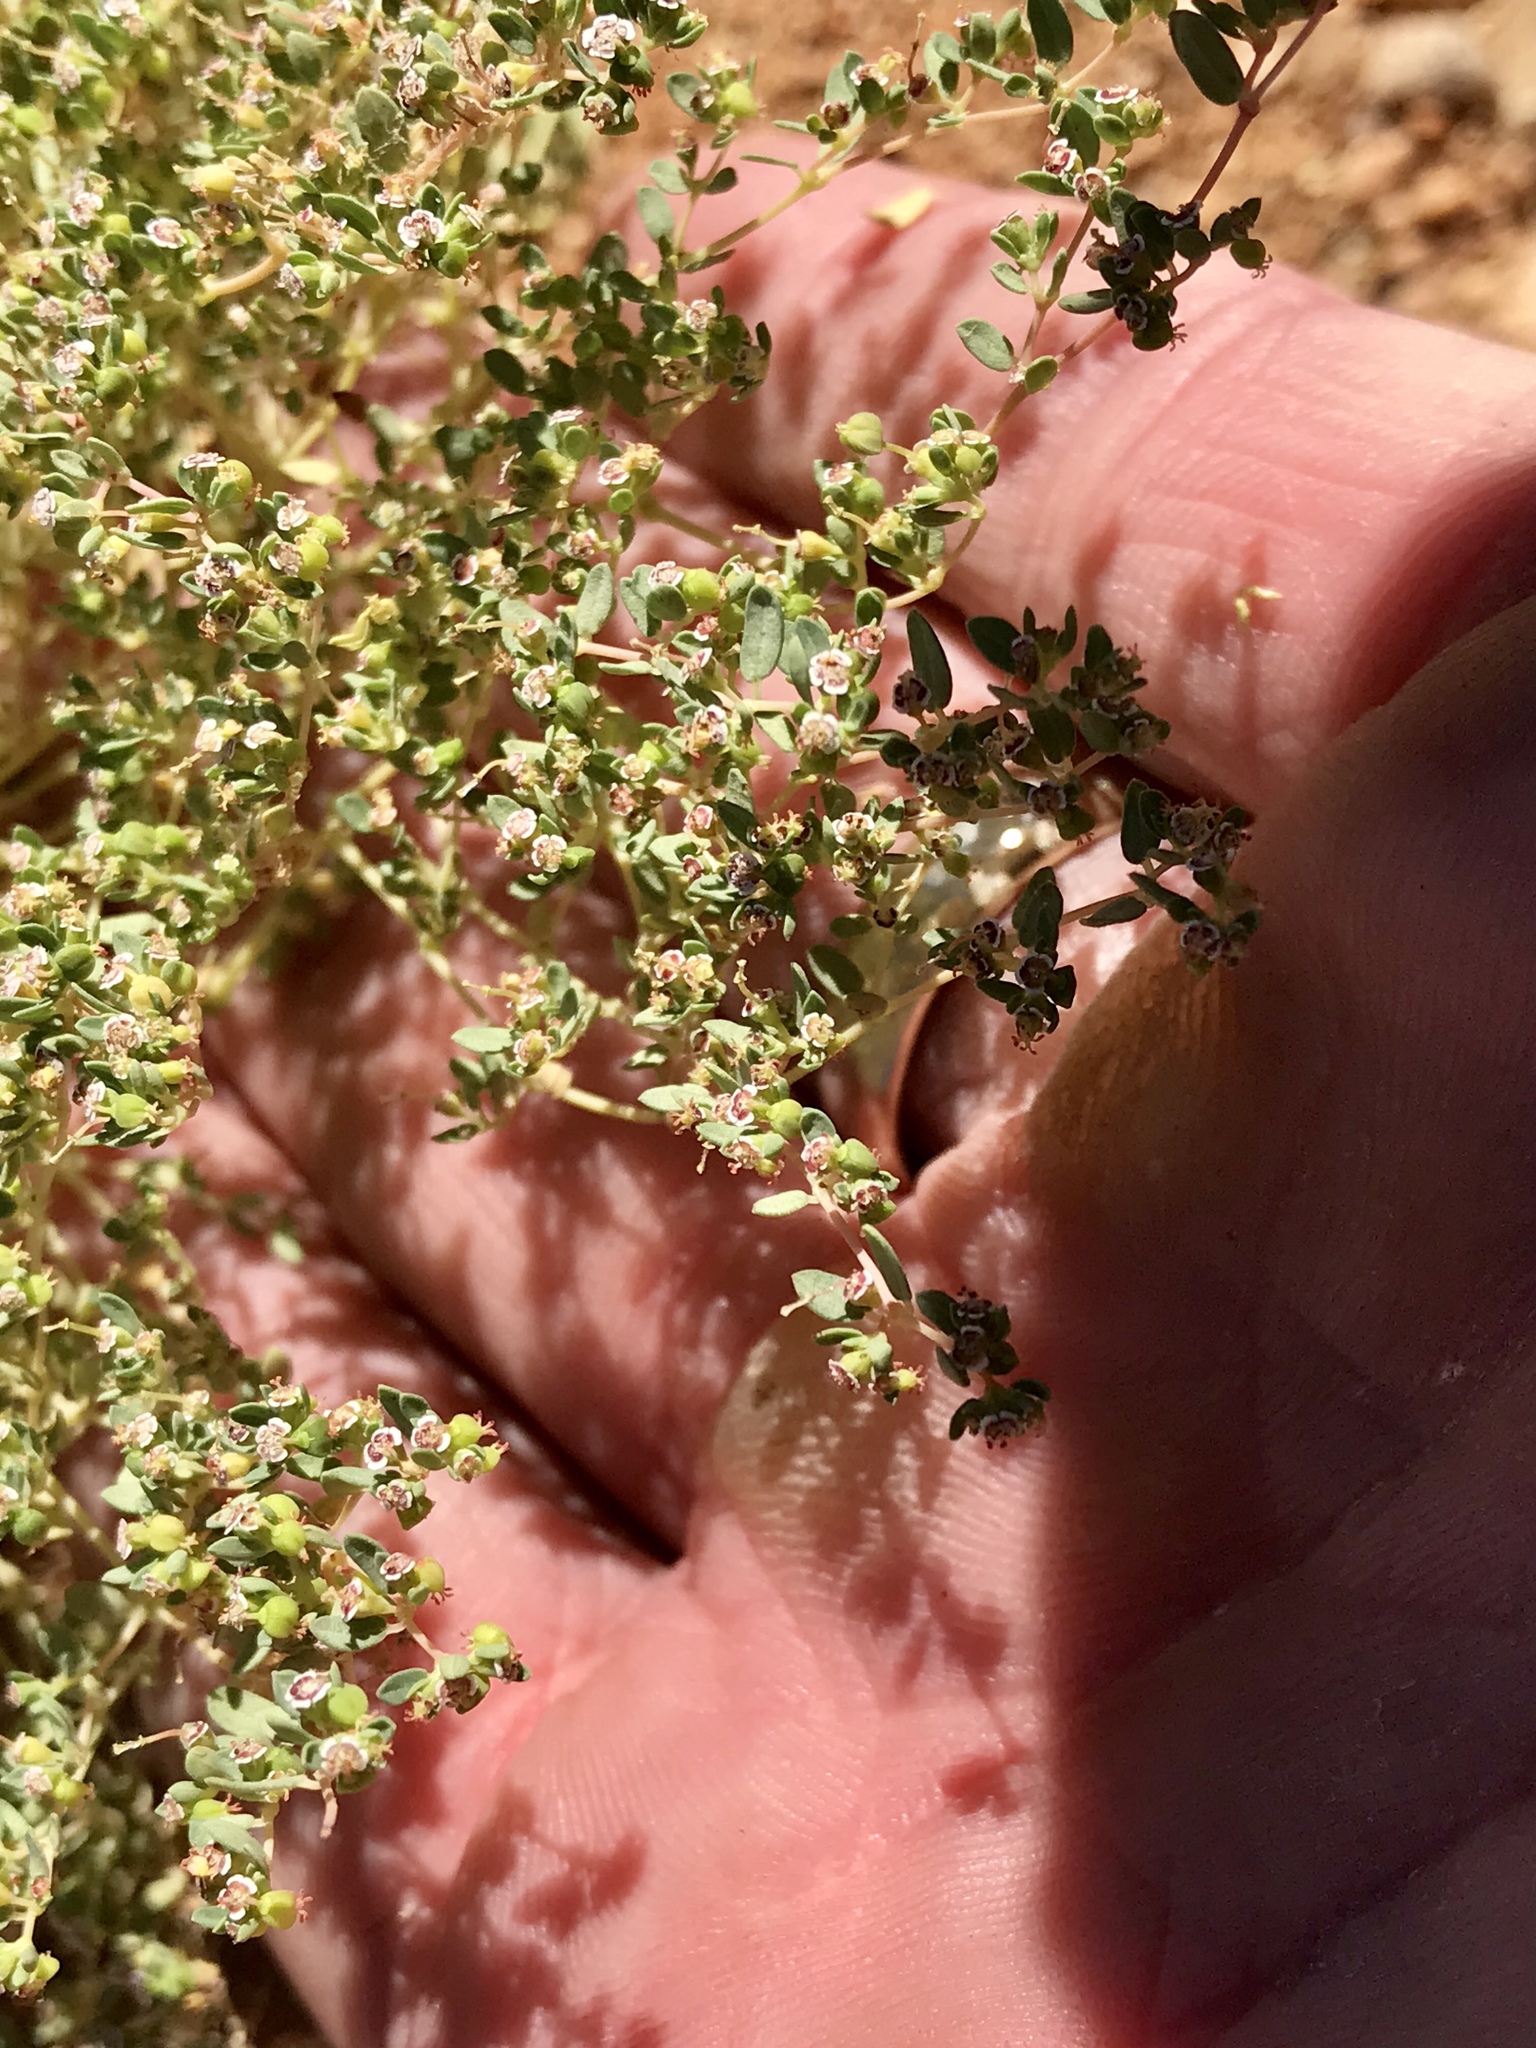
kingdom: Plantae
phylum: Tracheophyta
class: Magnoliopsida
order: Malpighiales
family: Euphorbiaceae
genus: Euphorbia
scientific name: Euphorbia polycarpa
